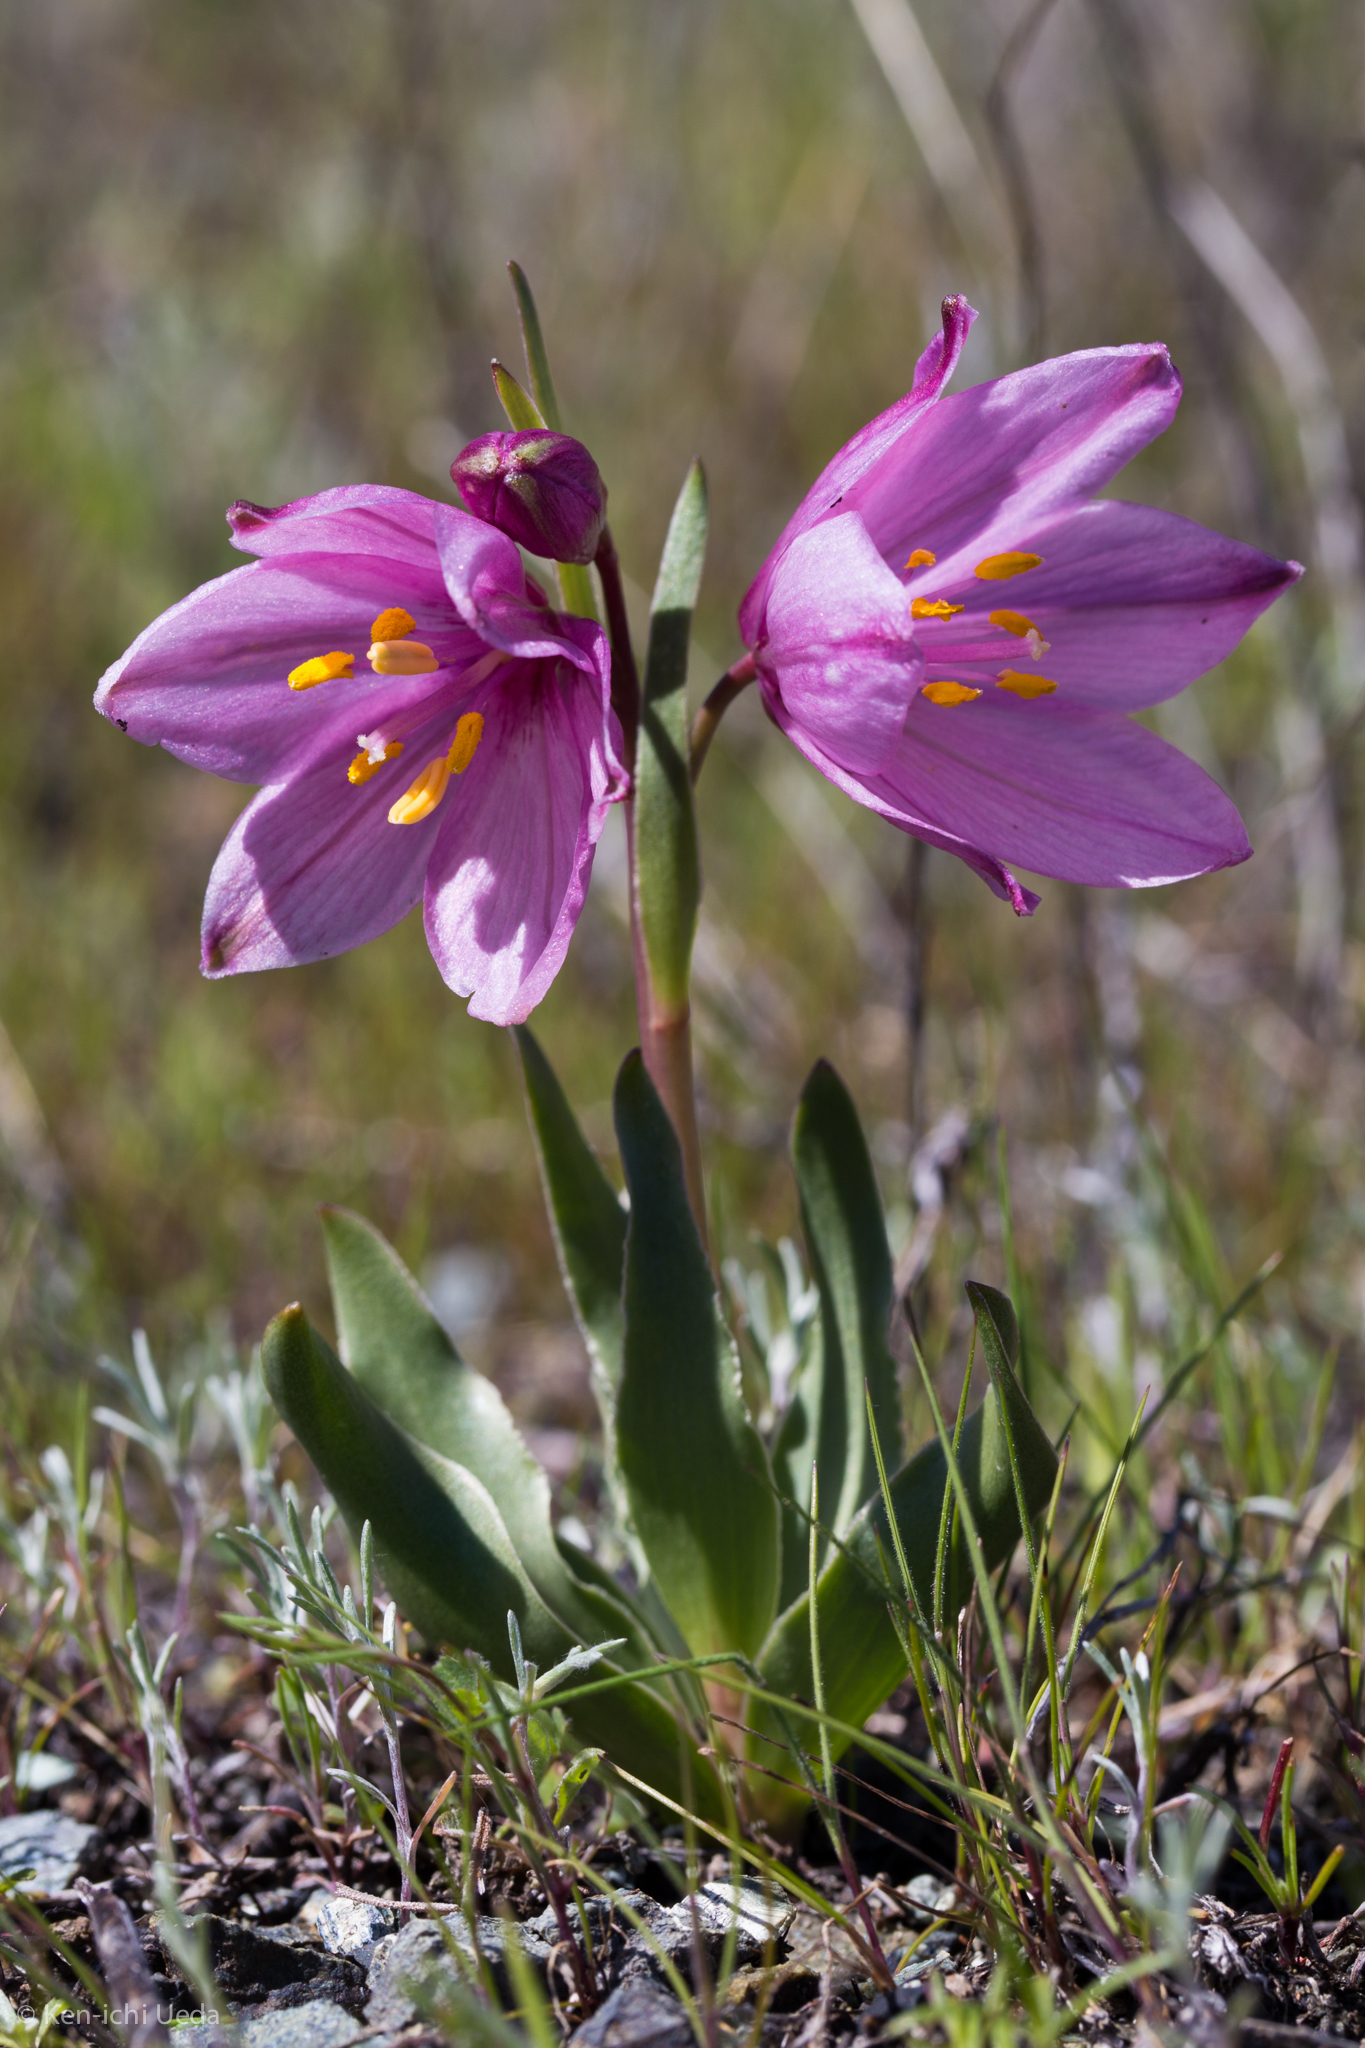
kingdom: Plantae
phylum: Tracheophyta
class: Liliopsida
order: Liliales
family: Liliaceae
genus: Fritillaria
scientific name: Fritillaria pluriflora
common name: Adobe-lily
